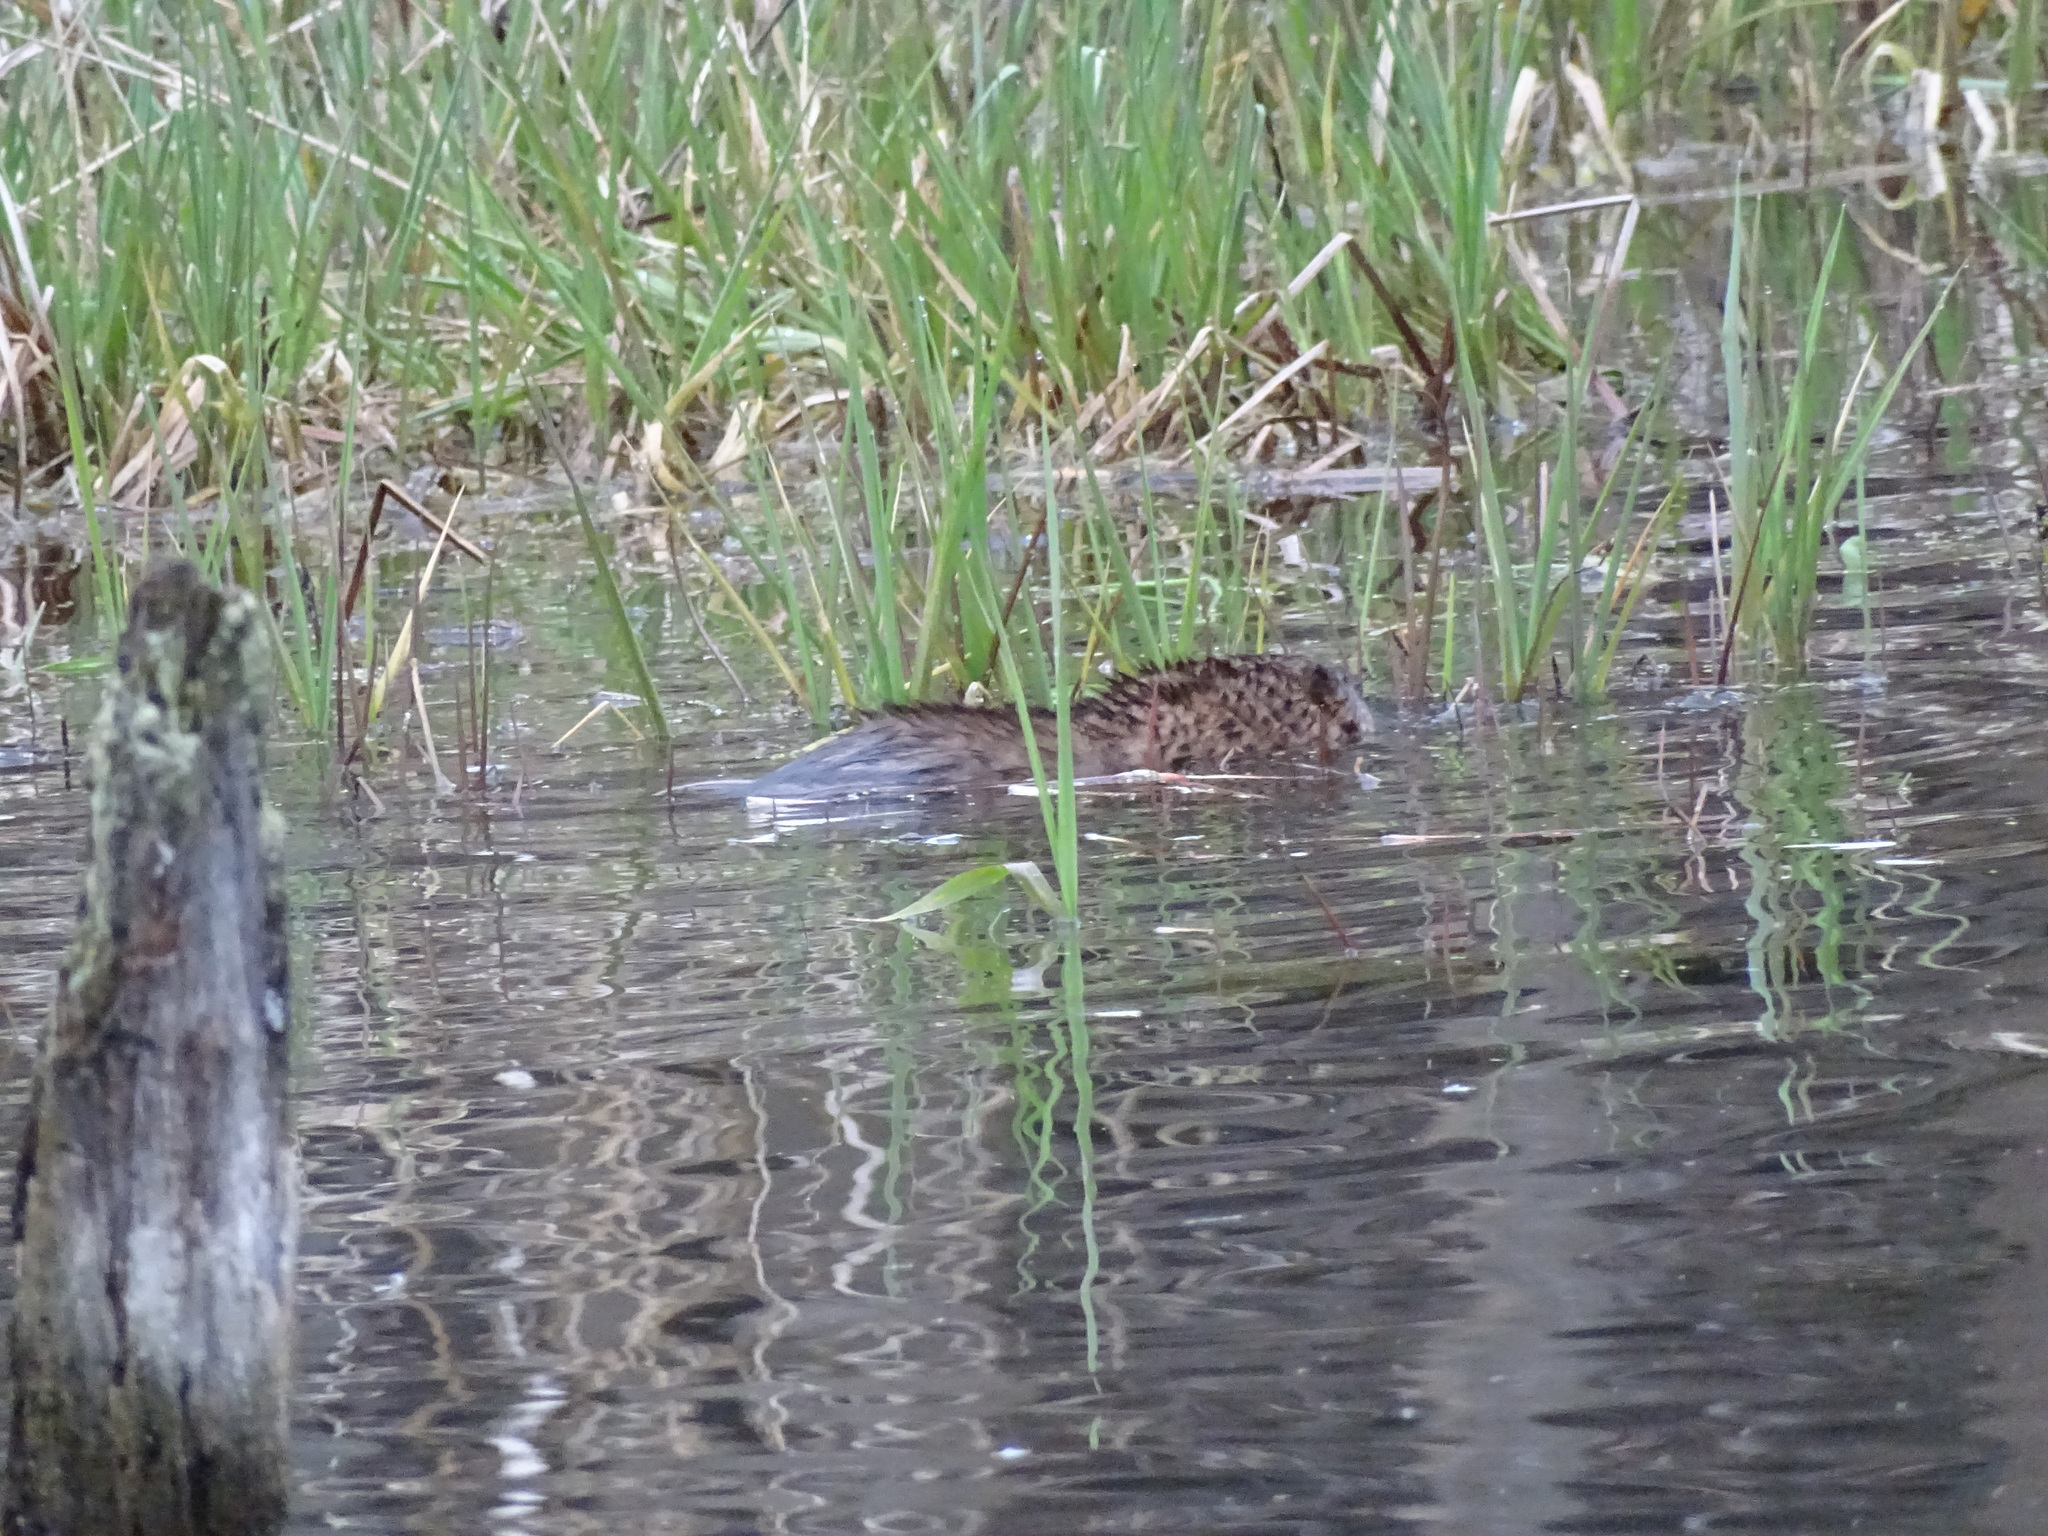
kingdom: Animalia
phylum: Chordata
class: Mammalia
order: Rodentia
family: Cricetidae
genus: Ondatra
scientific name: Ondatra zibethicus
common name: Muskrat
